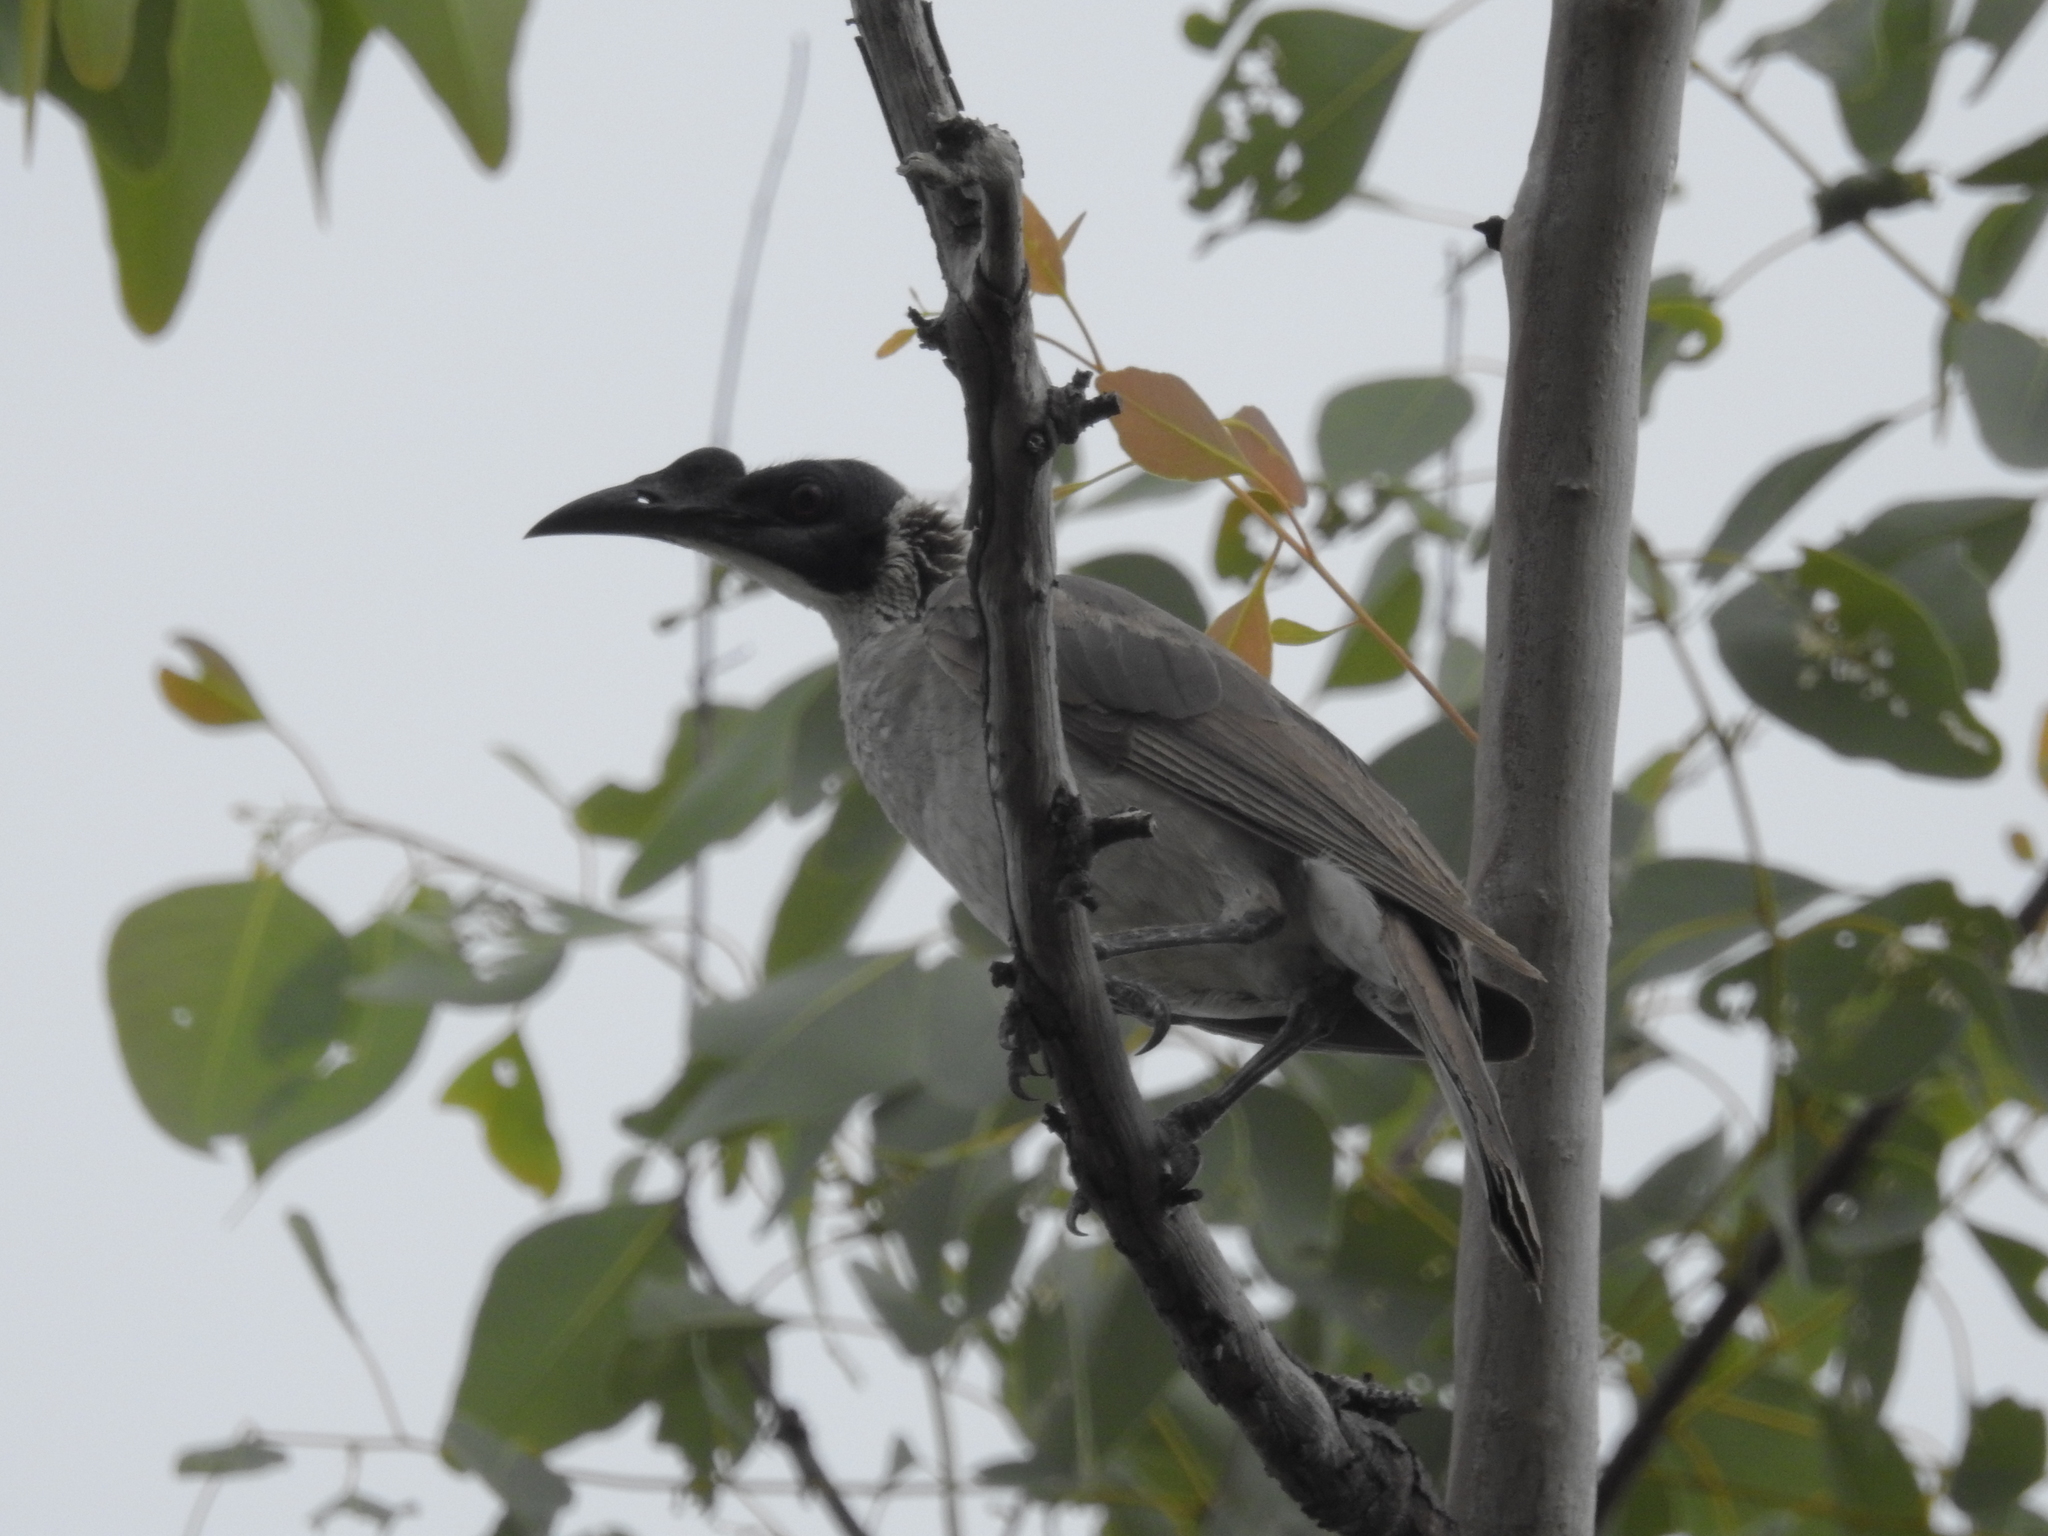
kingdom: Animalia
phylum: Chordata
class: Aves
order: Passeriformes
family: Meliphagidae
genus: Philemon
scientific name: Philemon argenticeps
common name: Silver-crowned friarbird
